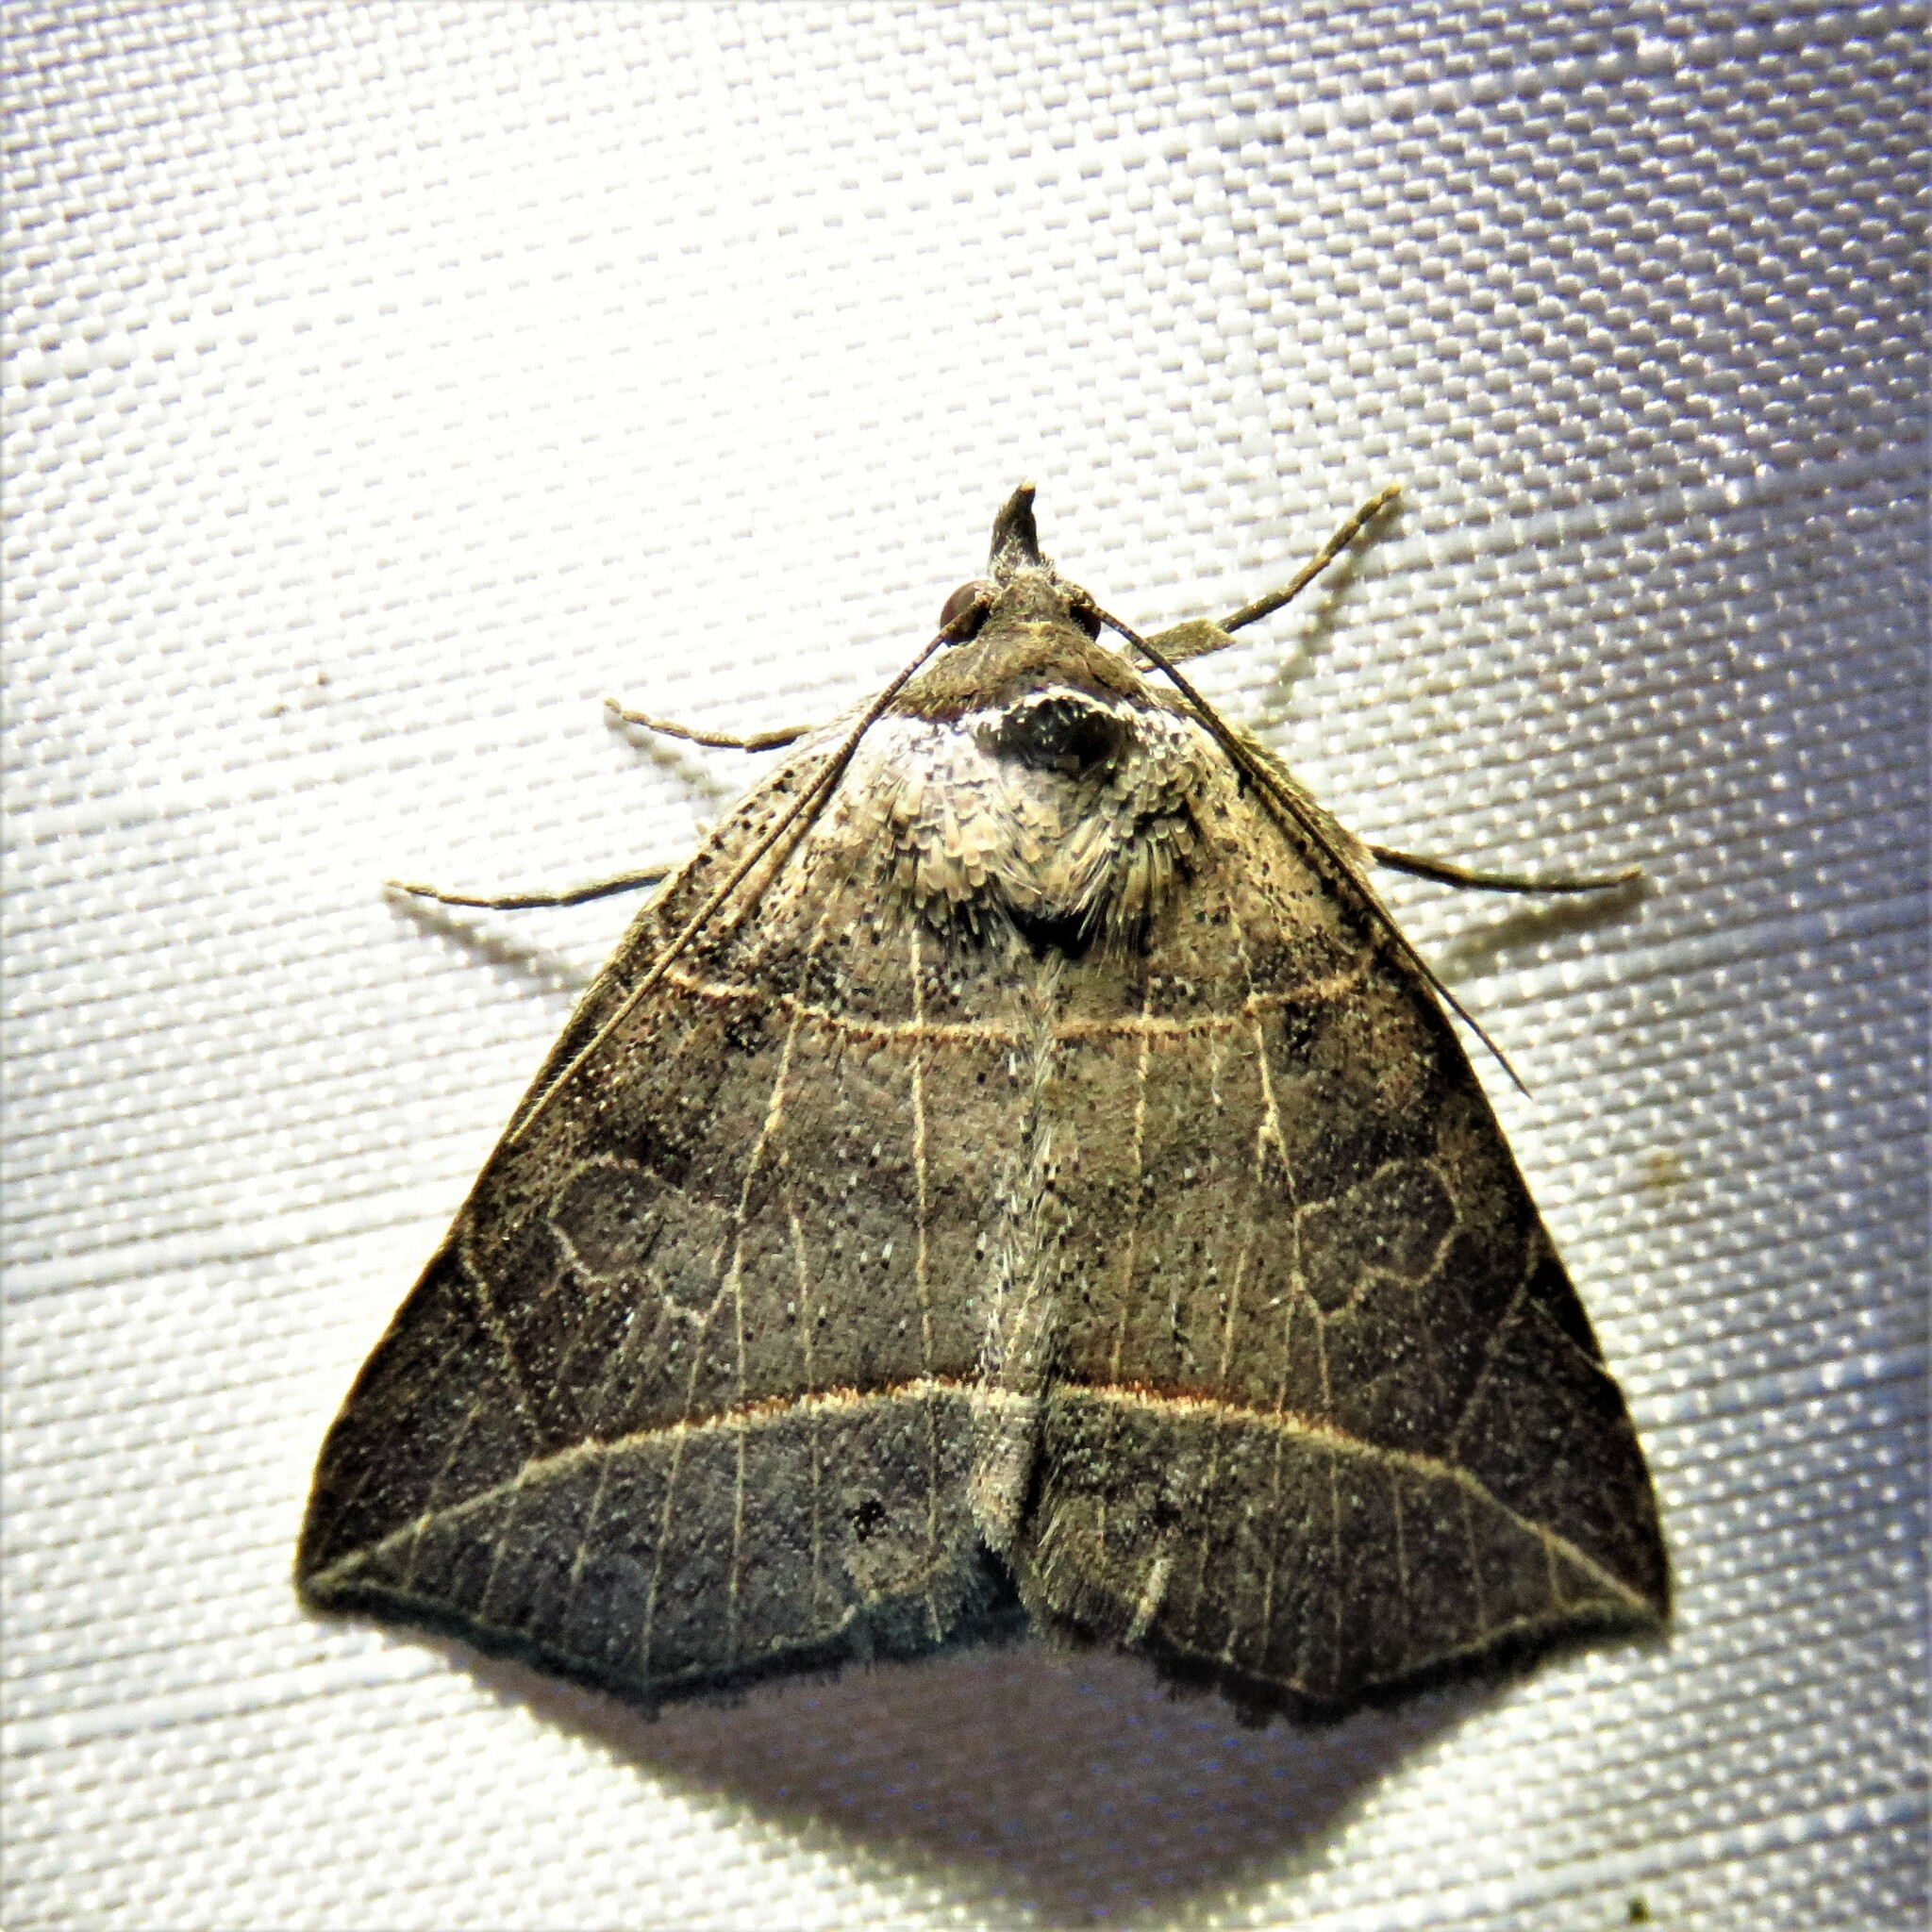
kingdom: Animalia
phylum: Arthropoda
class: Insecta
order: Lepidoptera
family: Erebidae
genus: Isogona
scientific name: Isogona tenuis
